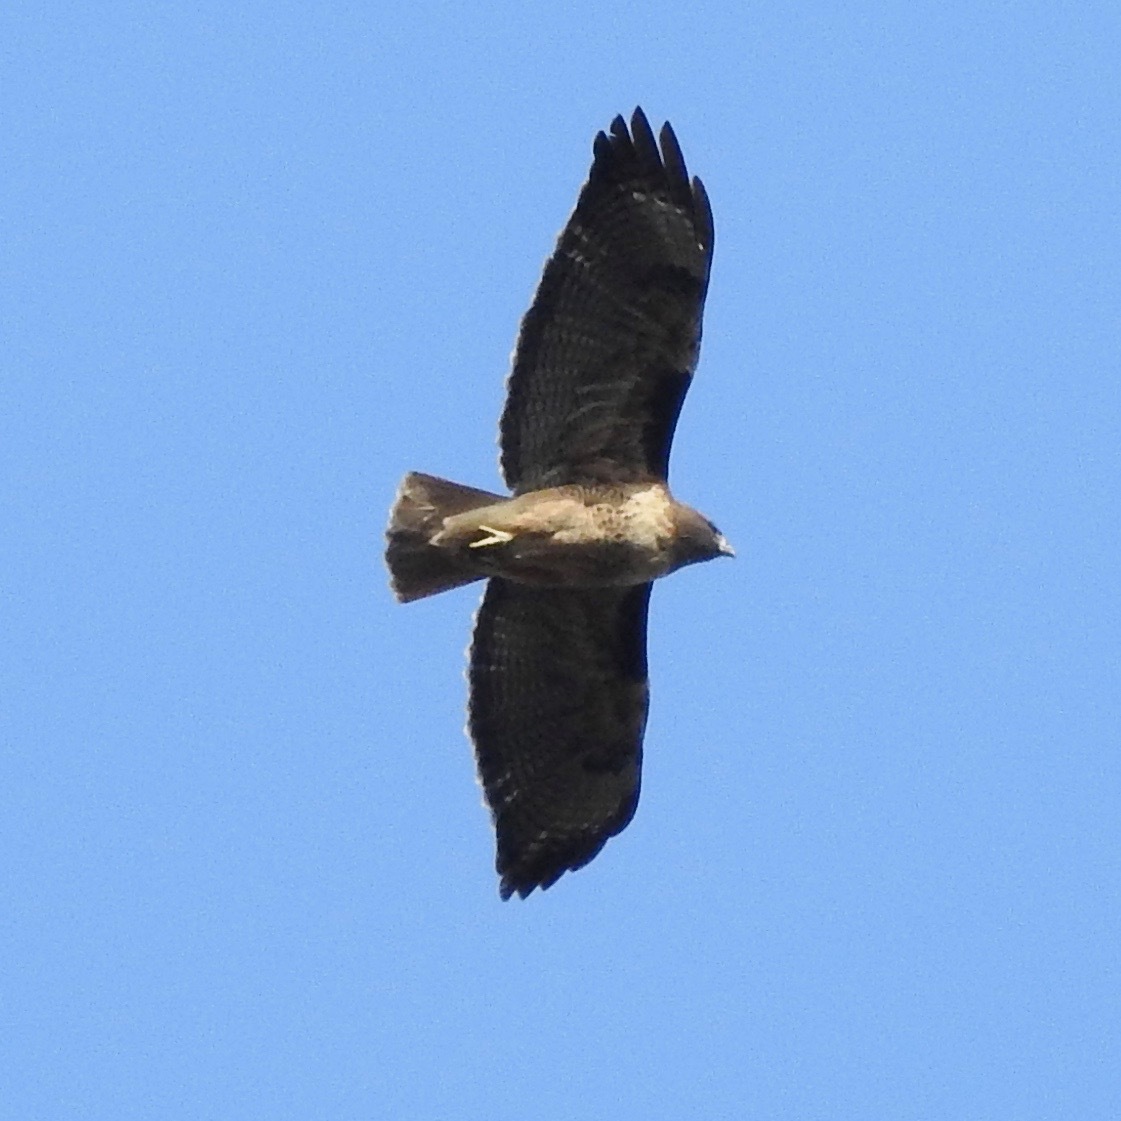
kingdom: Animalia
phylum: Chordata
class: Aves
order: Accipitriformes
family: Accipitridae
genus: Buteo
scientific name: Buteo jamaicensis
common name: Red-tailed hawk
